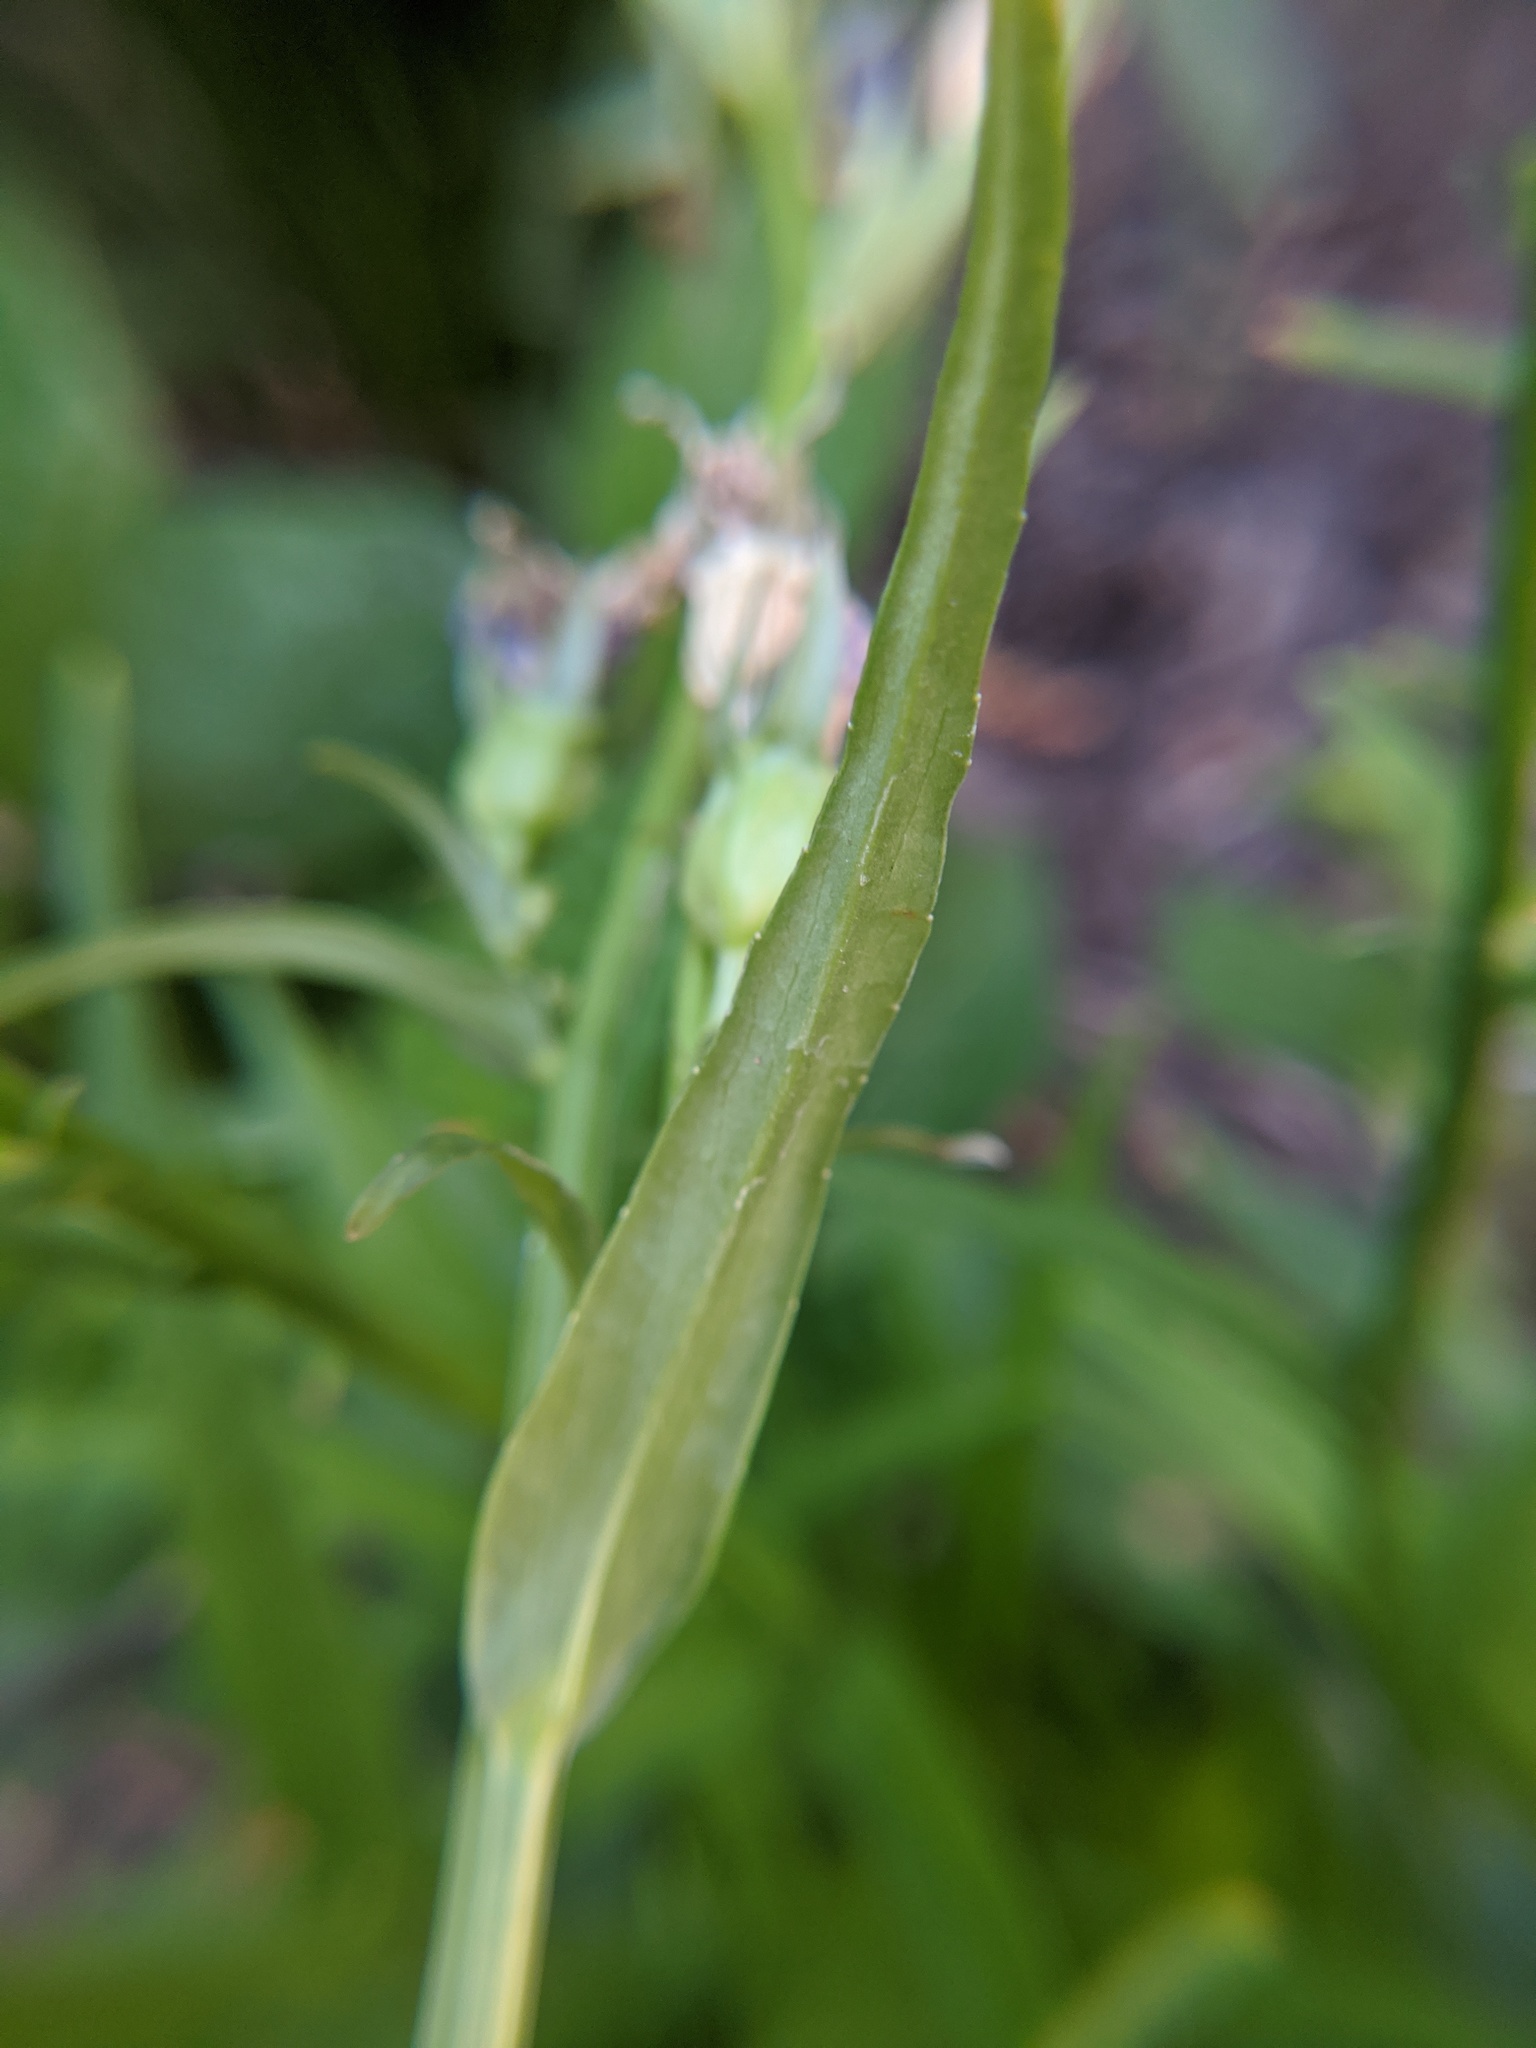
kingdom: Plantae
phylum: Tracheophyta
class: Magnoliopsida
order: Asterales
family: Campanulaceae
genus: Campanula
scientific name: Campanula persicifolia
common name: Peach-leaved bellflower
